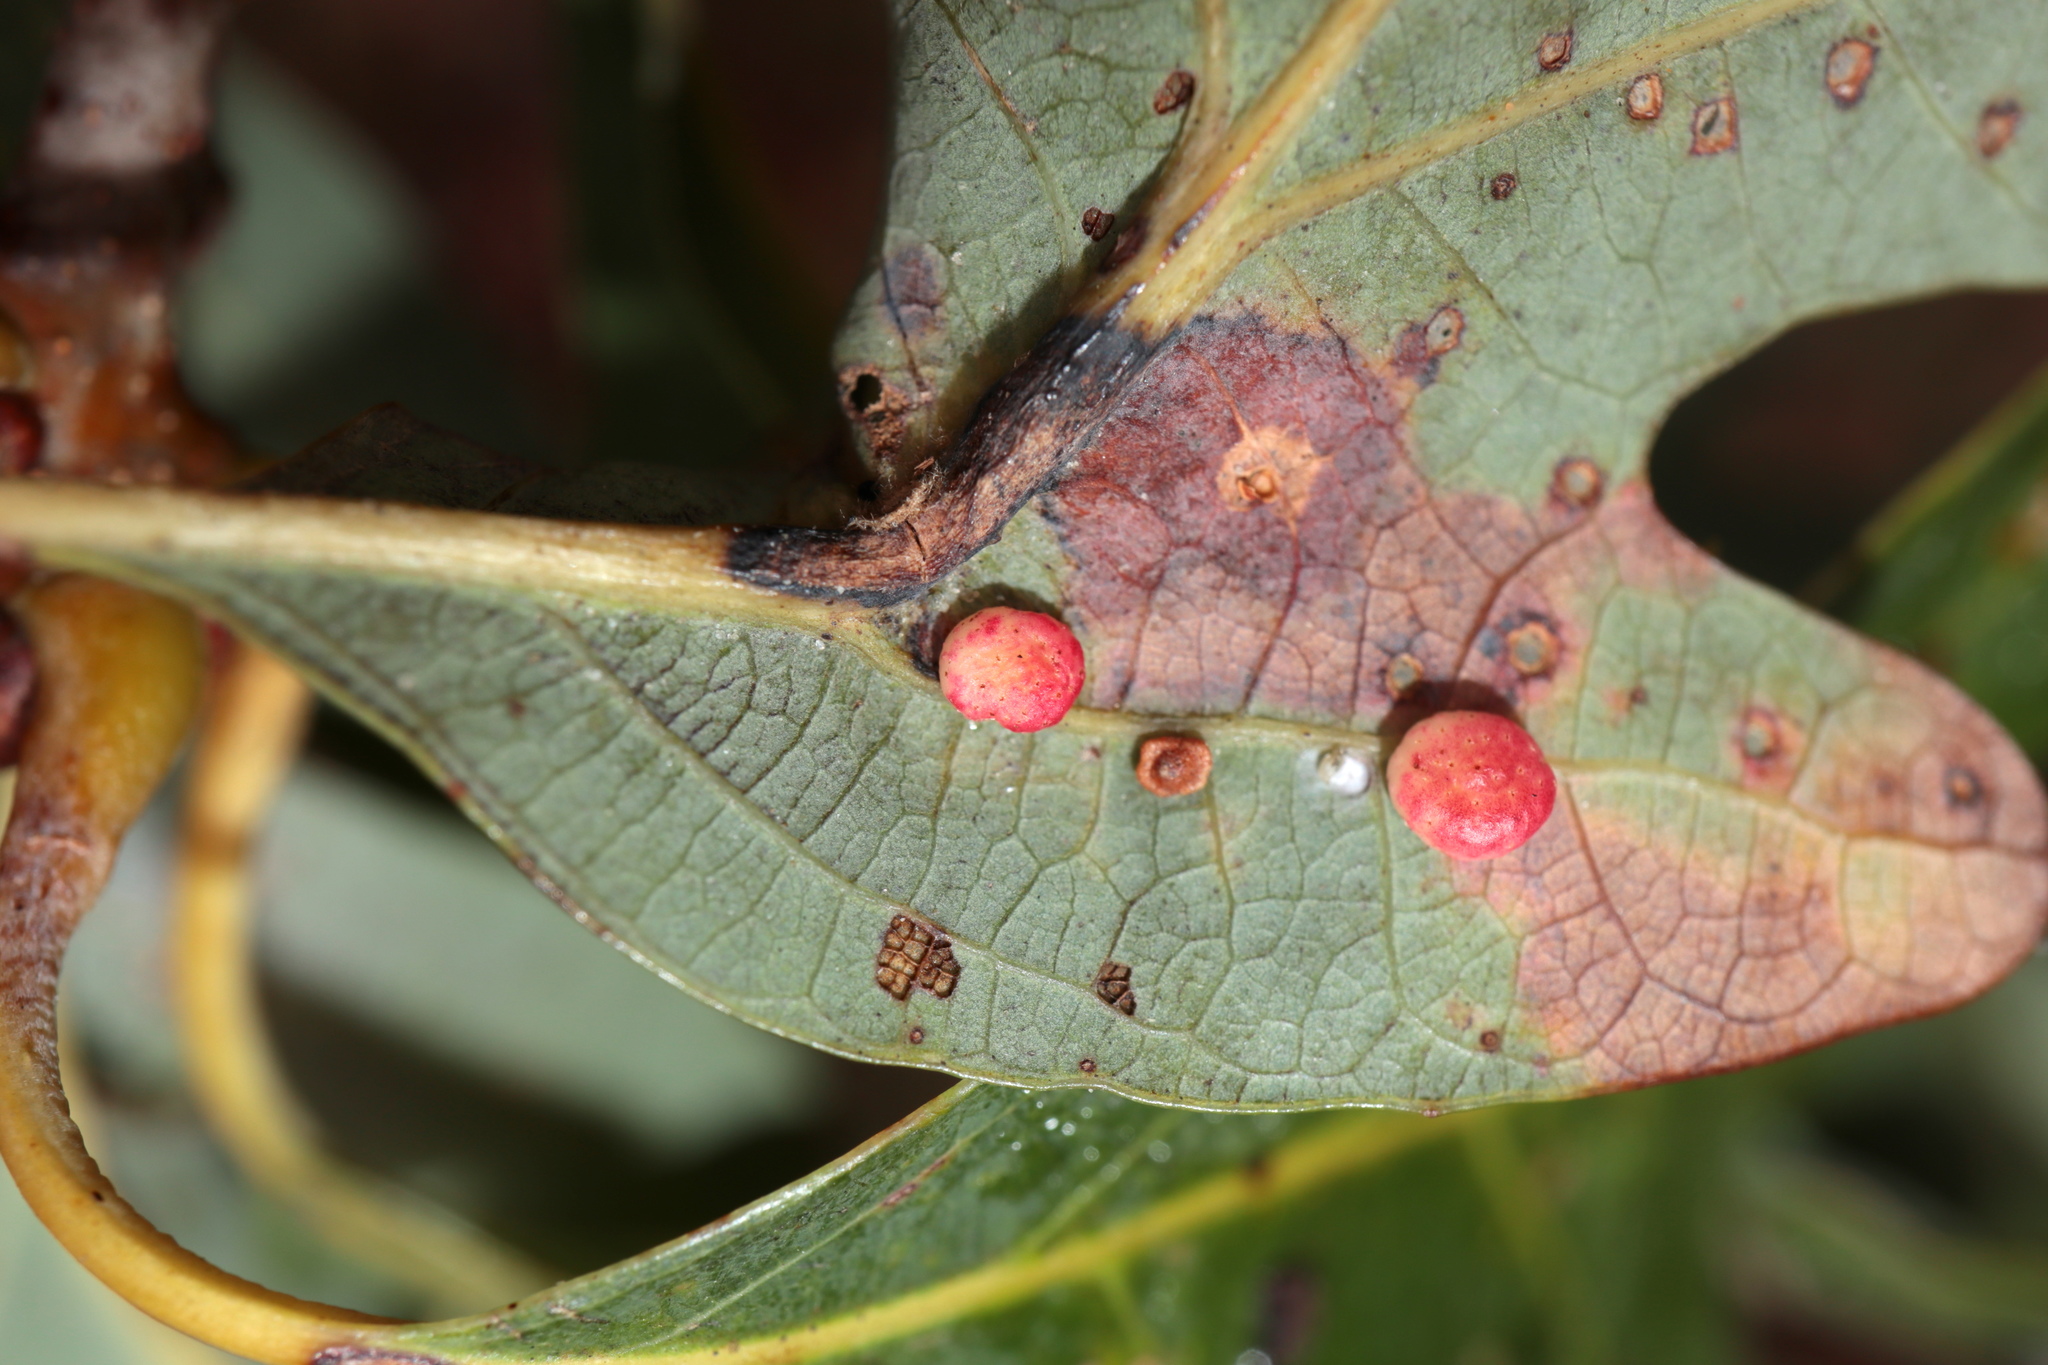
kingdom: Animalia
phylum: Arthropoda
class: Insecta
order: Hymenoptera
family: Cynipidae
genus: Phylloteras
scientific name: Phylloteras
